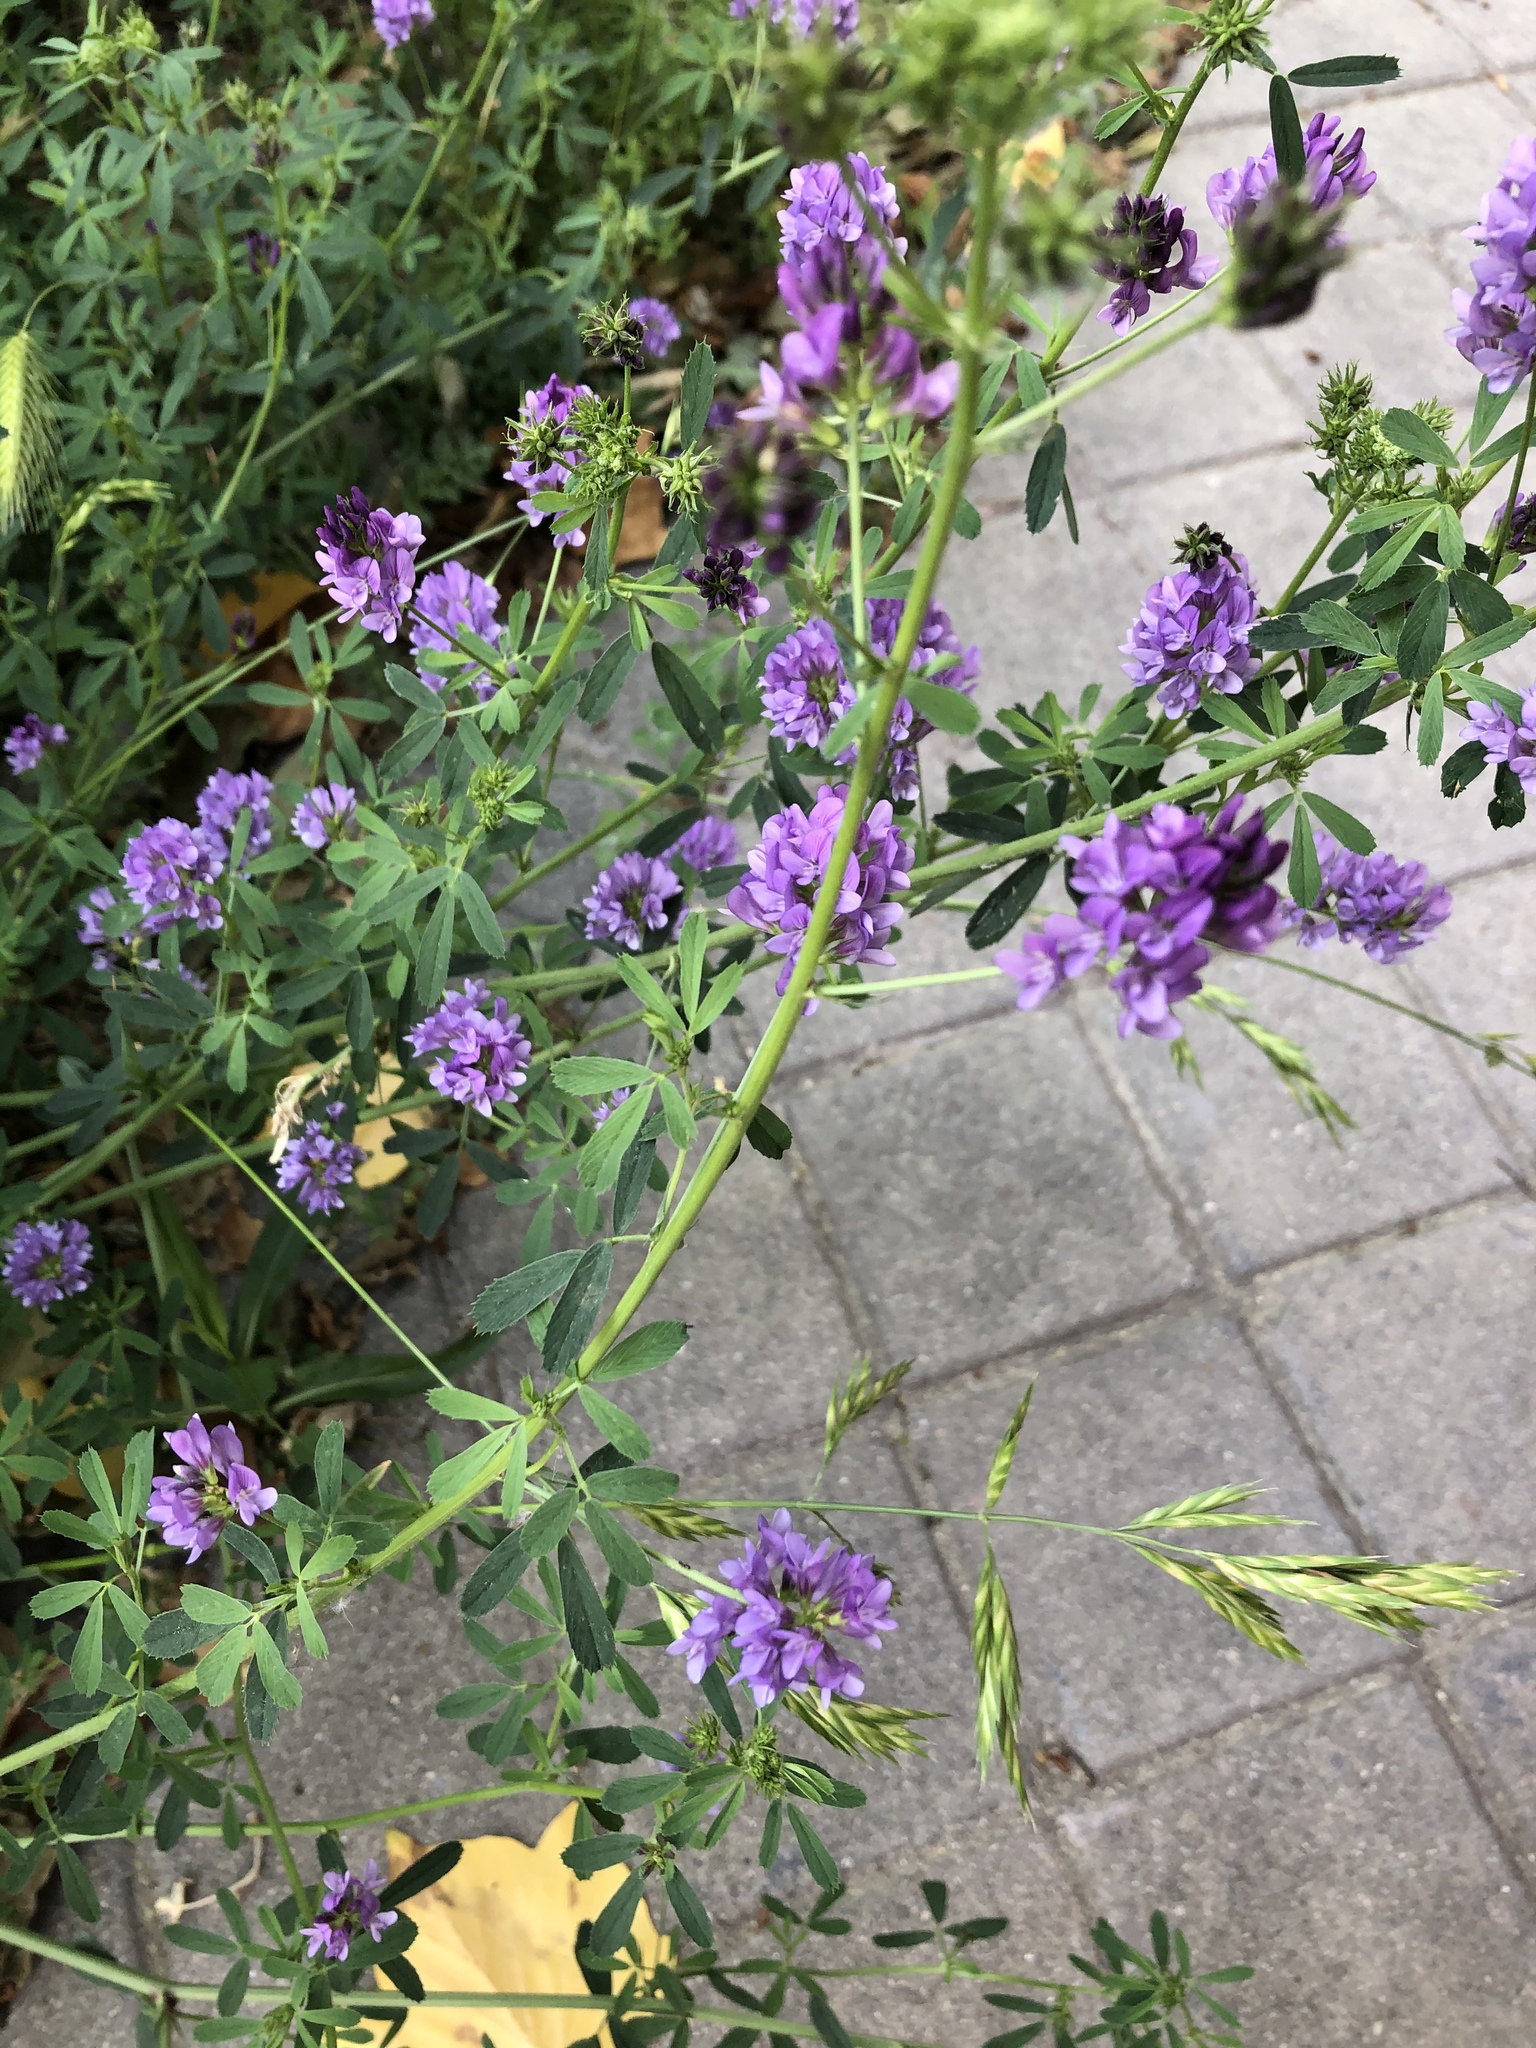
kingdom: Plantae
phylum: Tracheophyta
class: Magnoliopsida
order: Fabales
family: Fabaceae
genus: Medicago
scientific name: Medicago sativa
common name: Alfalfa
